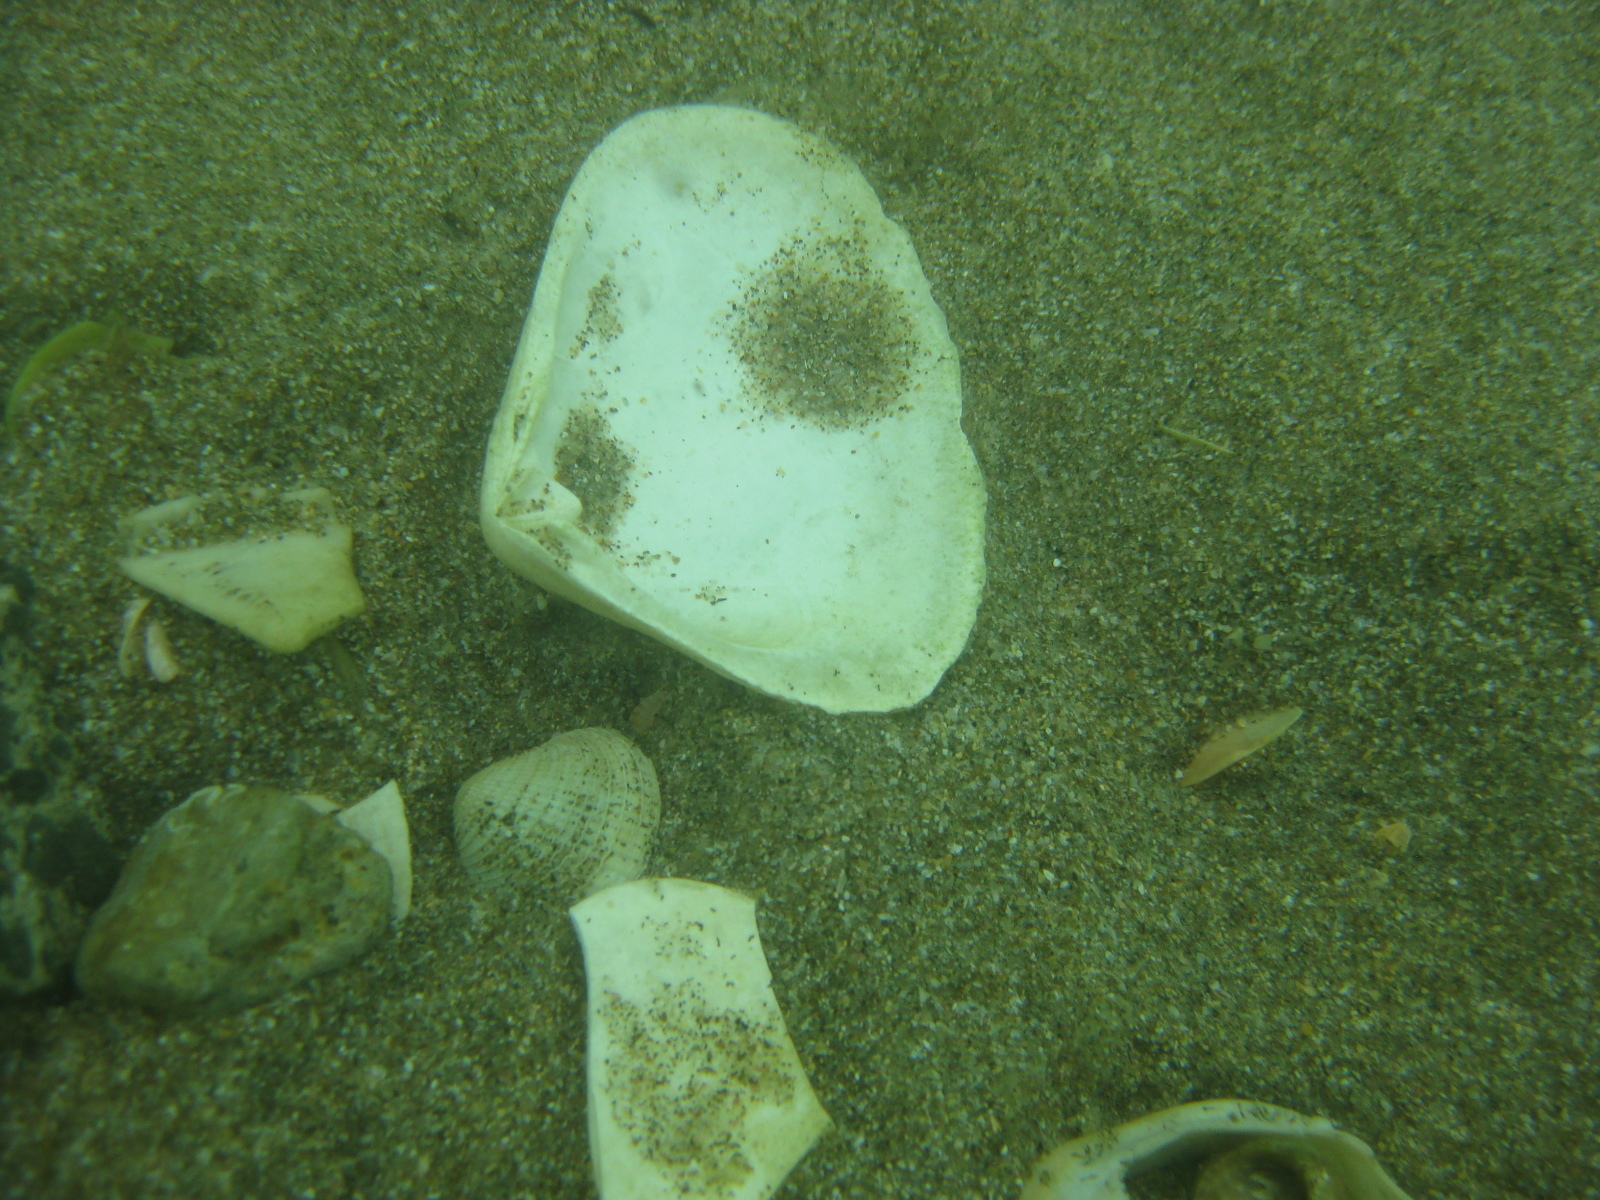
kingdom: Animalia
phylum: Mollusca
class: Bivalvia
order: Venerida
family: Mesodesmatidae
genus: Paphies
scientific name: Paphies donacina
